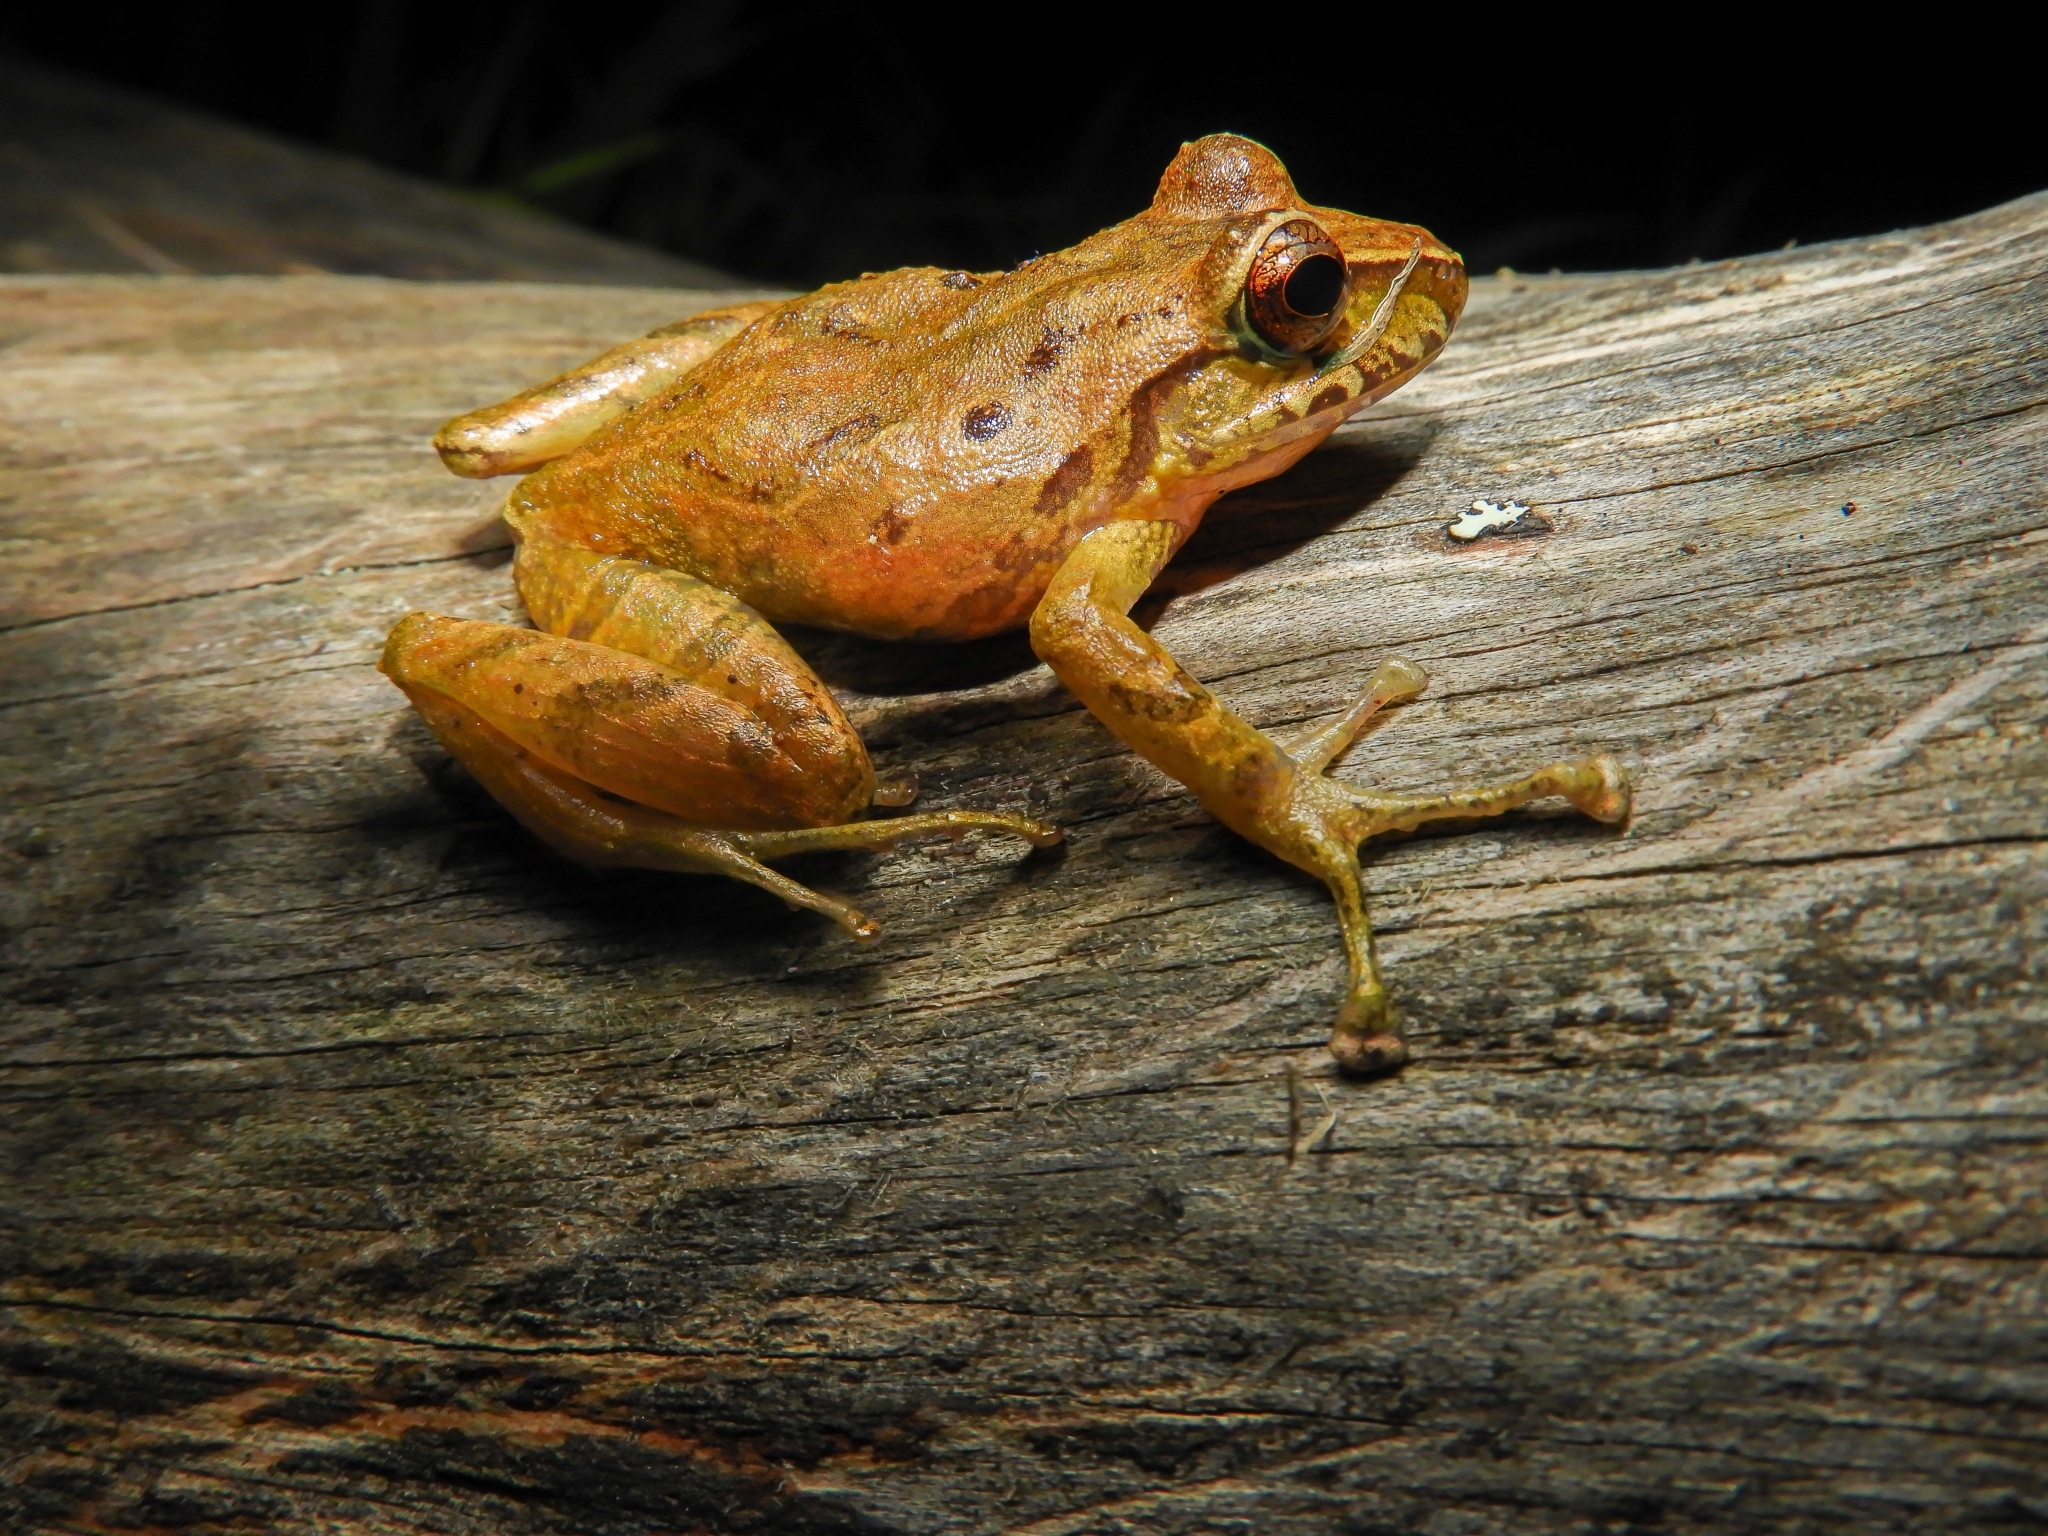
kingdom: Animalia
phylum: Chordata
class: Amphibia
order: Anura
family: Craugastoridae
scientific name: Craugastoridae
